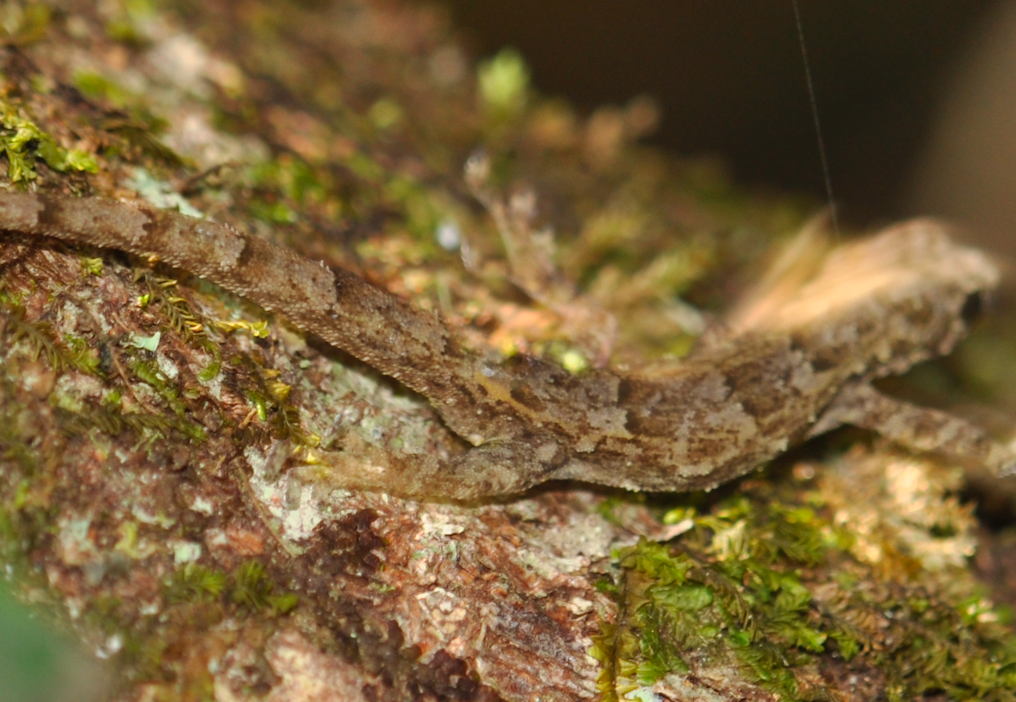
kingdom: Animalia
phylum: Chordata
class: Squamata
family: Gekkonidae
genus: Lygodactylus
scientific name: Lygodactylus guibei
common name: Guibé’s dwarf day gecko
